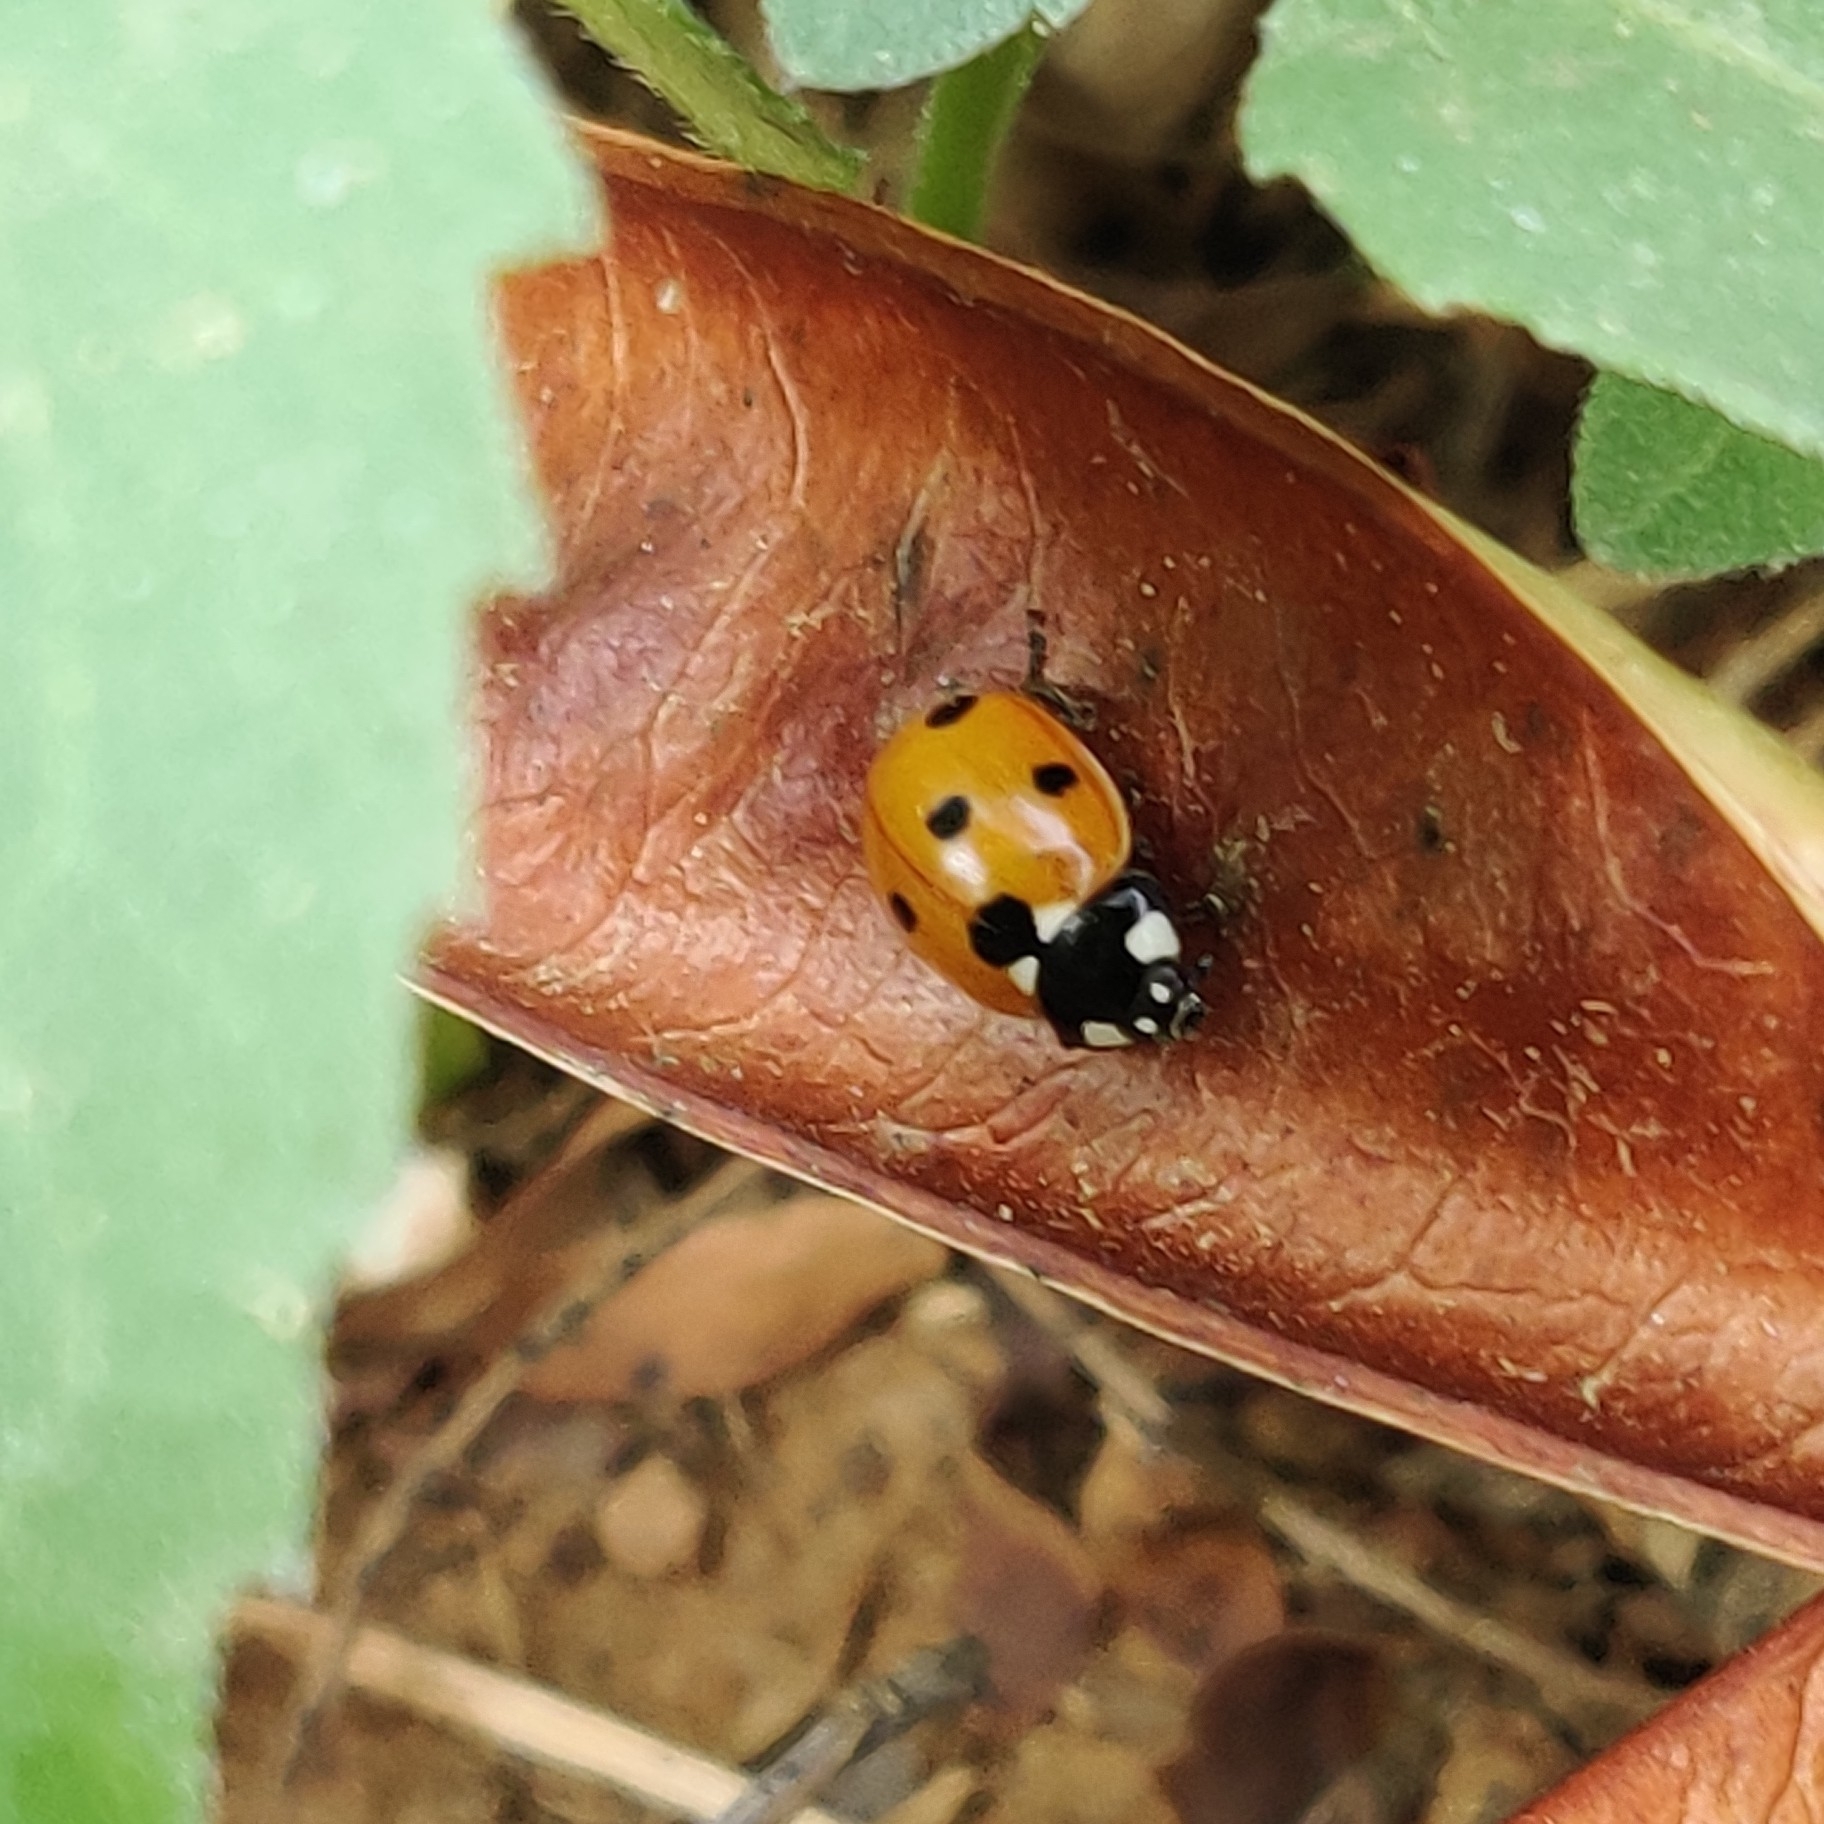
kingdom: Animalia
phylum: Arthropoda
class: Insecta
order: Coleoptera
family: Coccinellidae
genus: Coccinella
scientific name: Coccinella septempunctata
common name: Sevenspotted lady beetle
